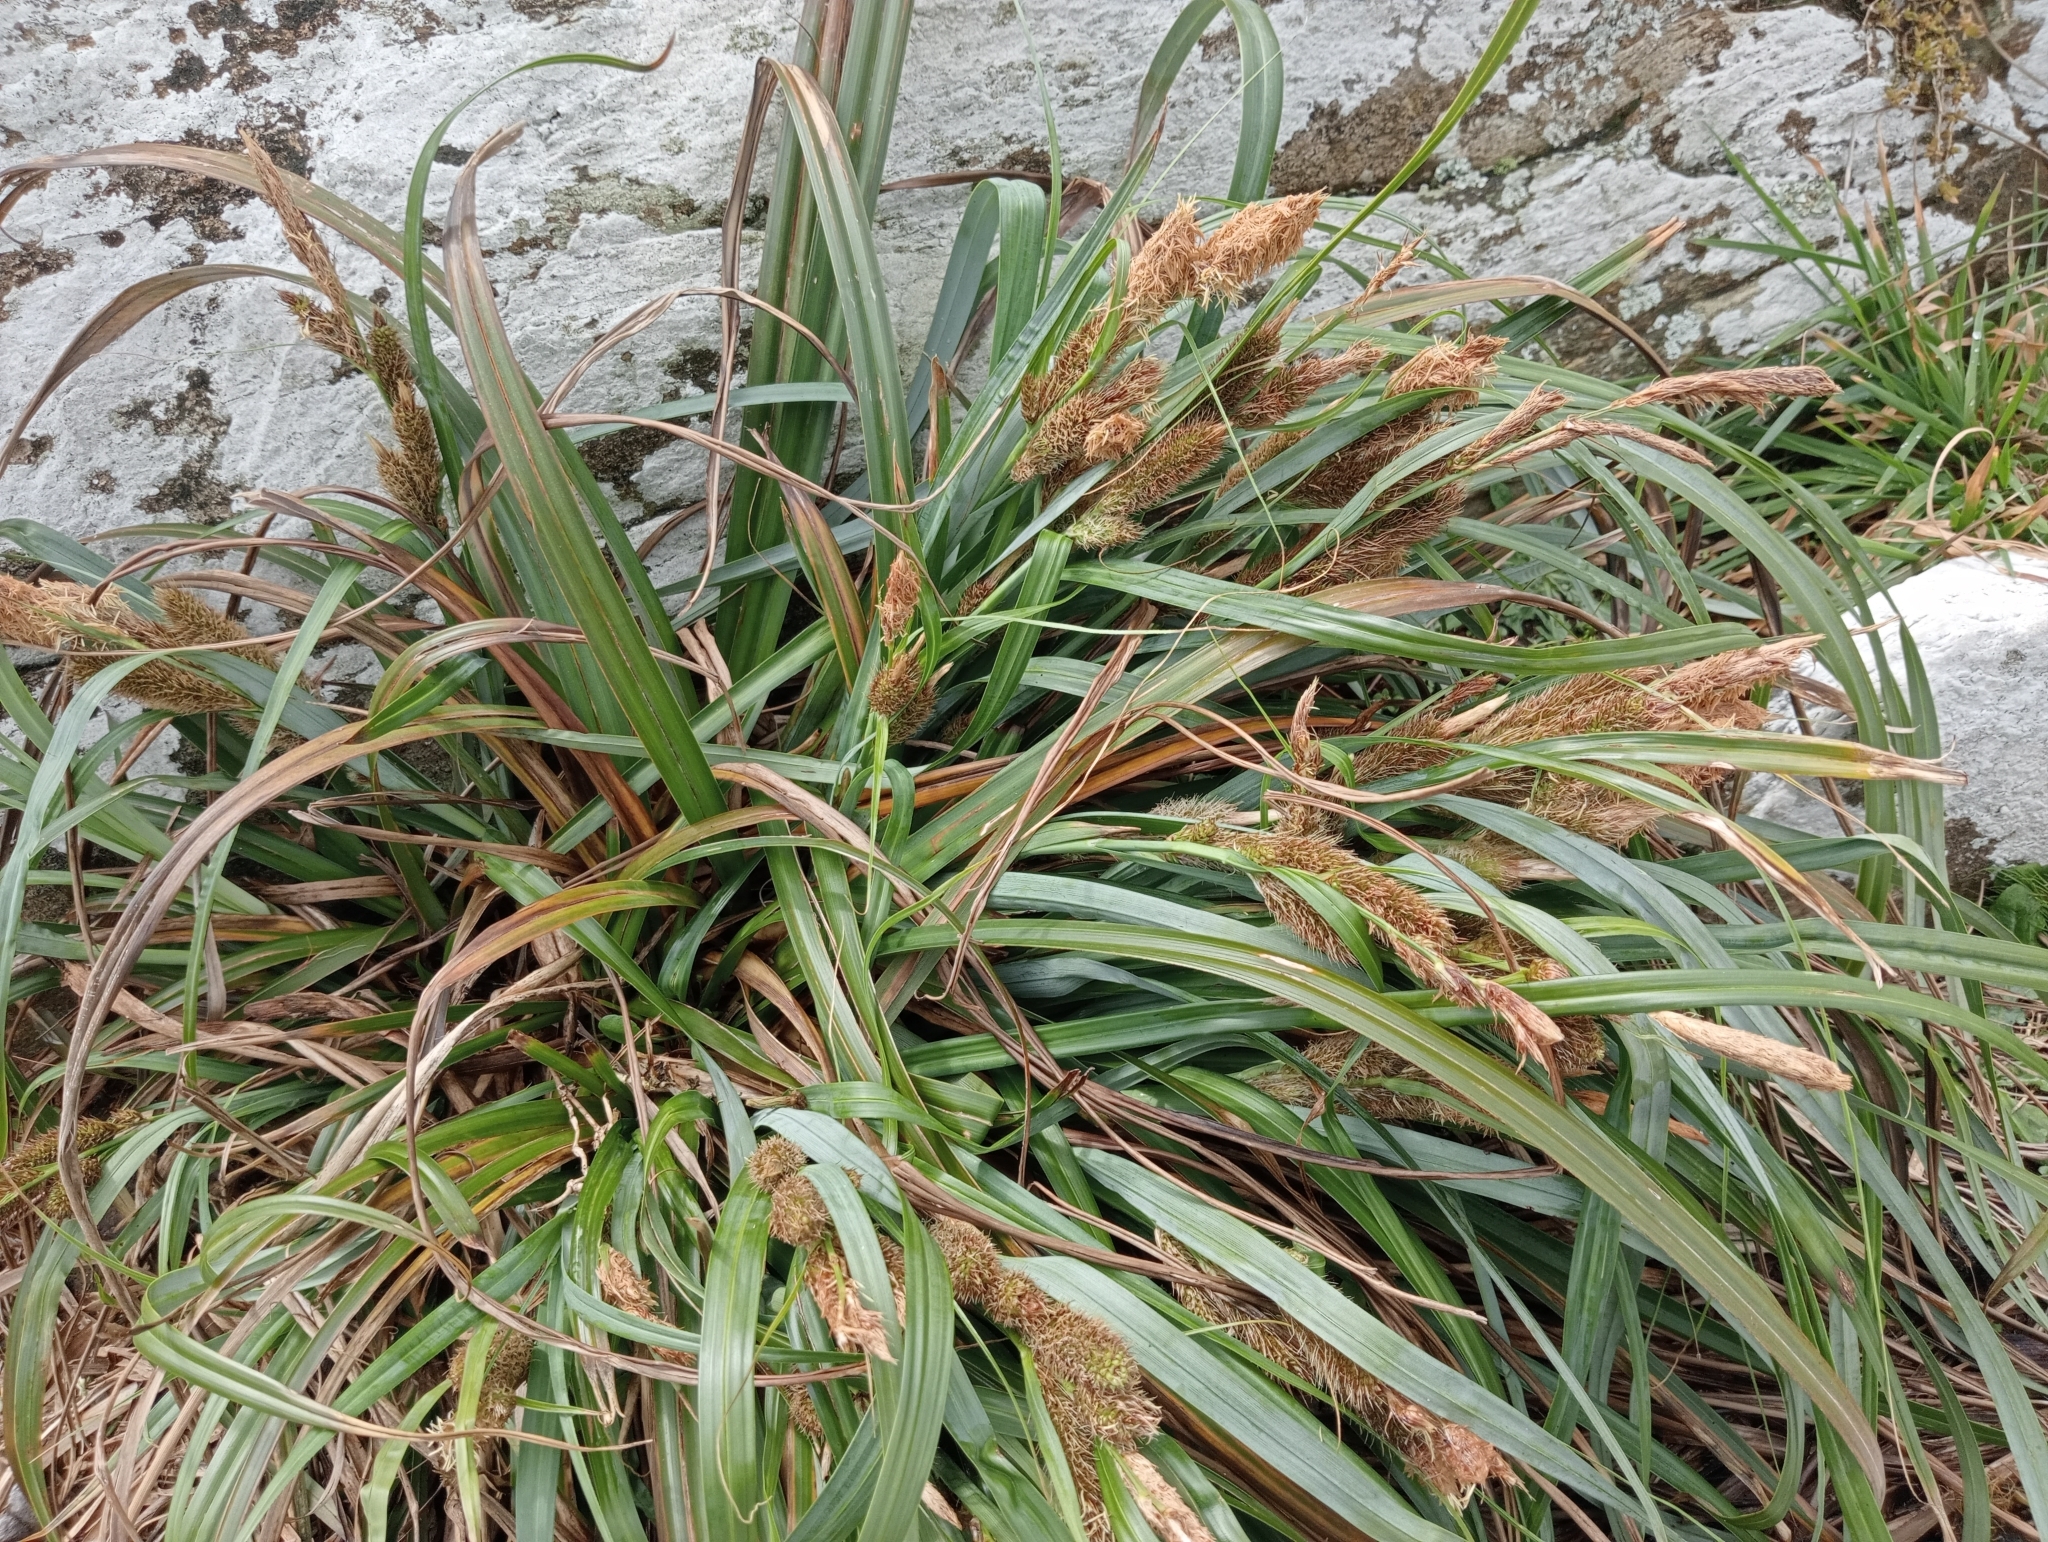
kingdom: Plantae
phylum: Tracheophyta
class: Liliopsida
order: Poales
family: Cyperaceae
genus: Carex
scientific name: Carex trifida
